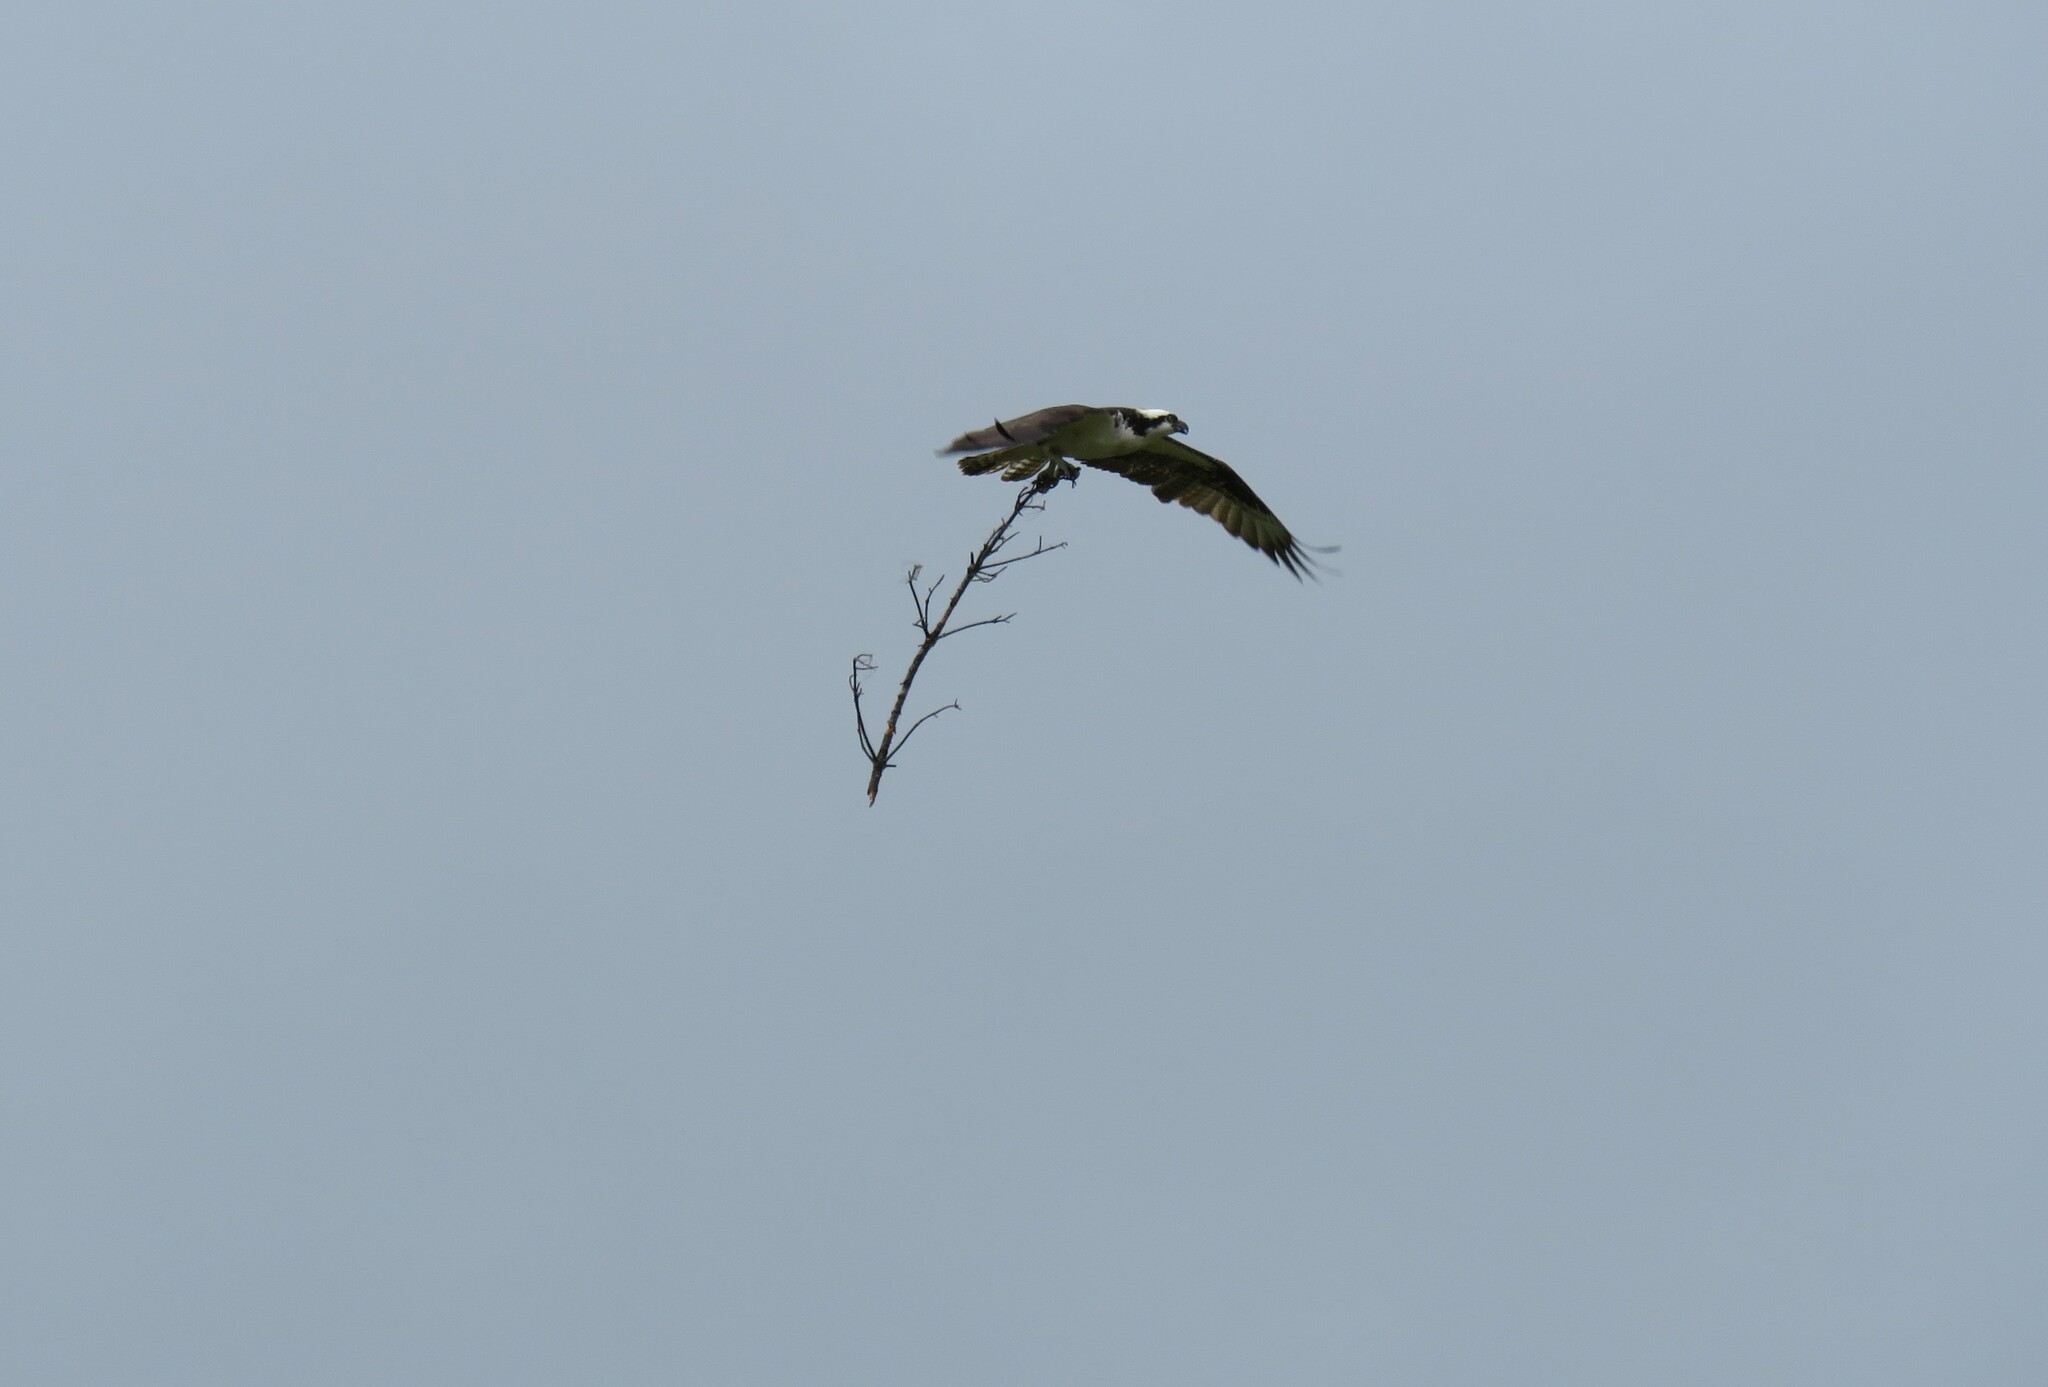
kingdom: Animalia
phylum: Chordata
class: Aves
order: Accipitriformes
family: Pandionidae
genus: Pandion
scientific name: Pandion haliaetus
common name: Osprey
